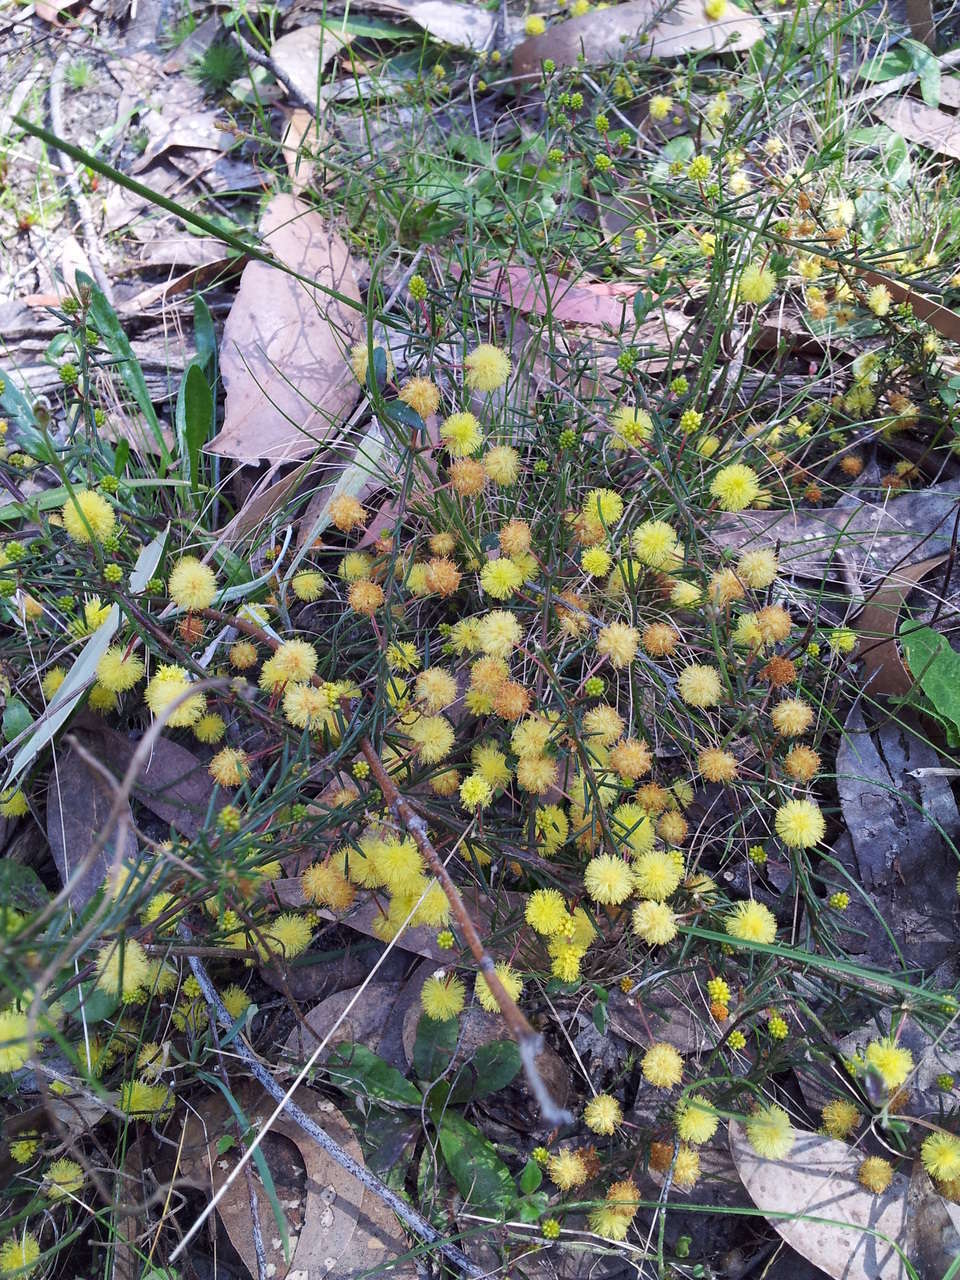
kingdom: Plantae
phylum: Tracheophyta
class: Magnoliopsida
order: Fabales
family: Fabaceae
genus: Acacia
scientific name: Acacia aculeatissima
